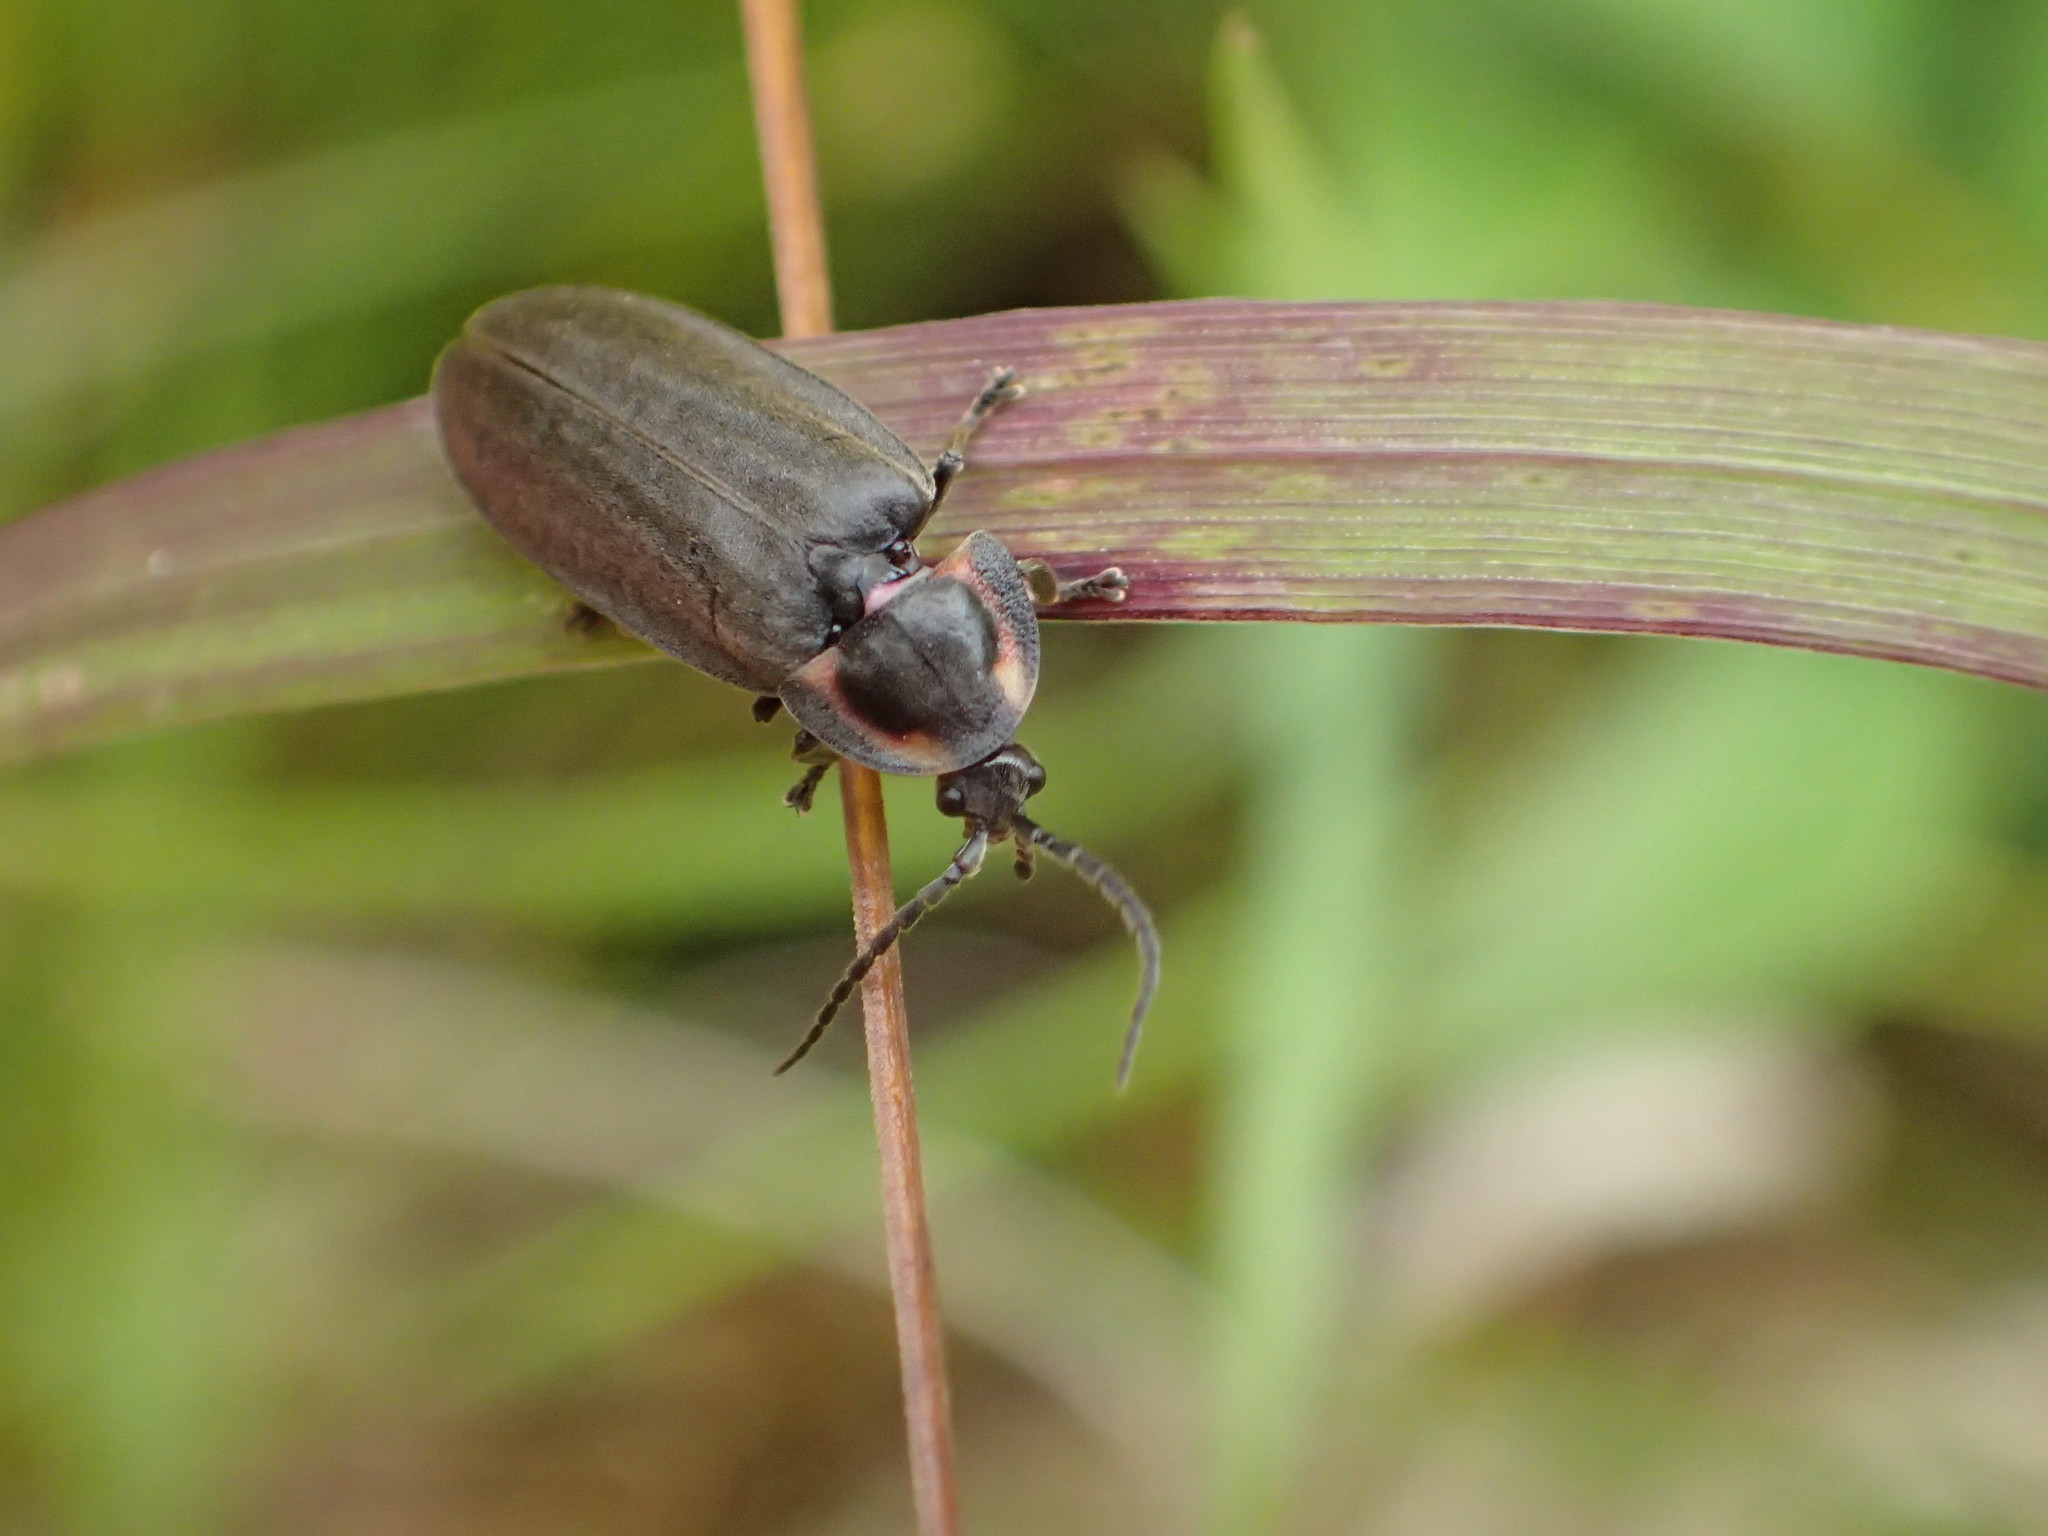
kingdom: Animalia
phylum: Arthropoda
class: Insecta
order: Coleoptera
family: Lampyridae
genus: Ellychnia
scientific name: Ellychnia
